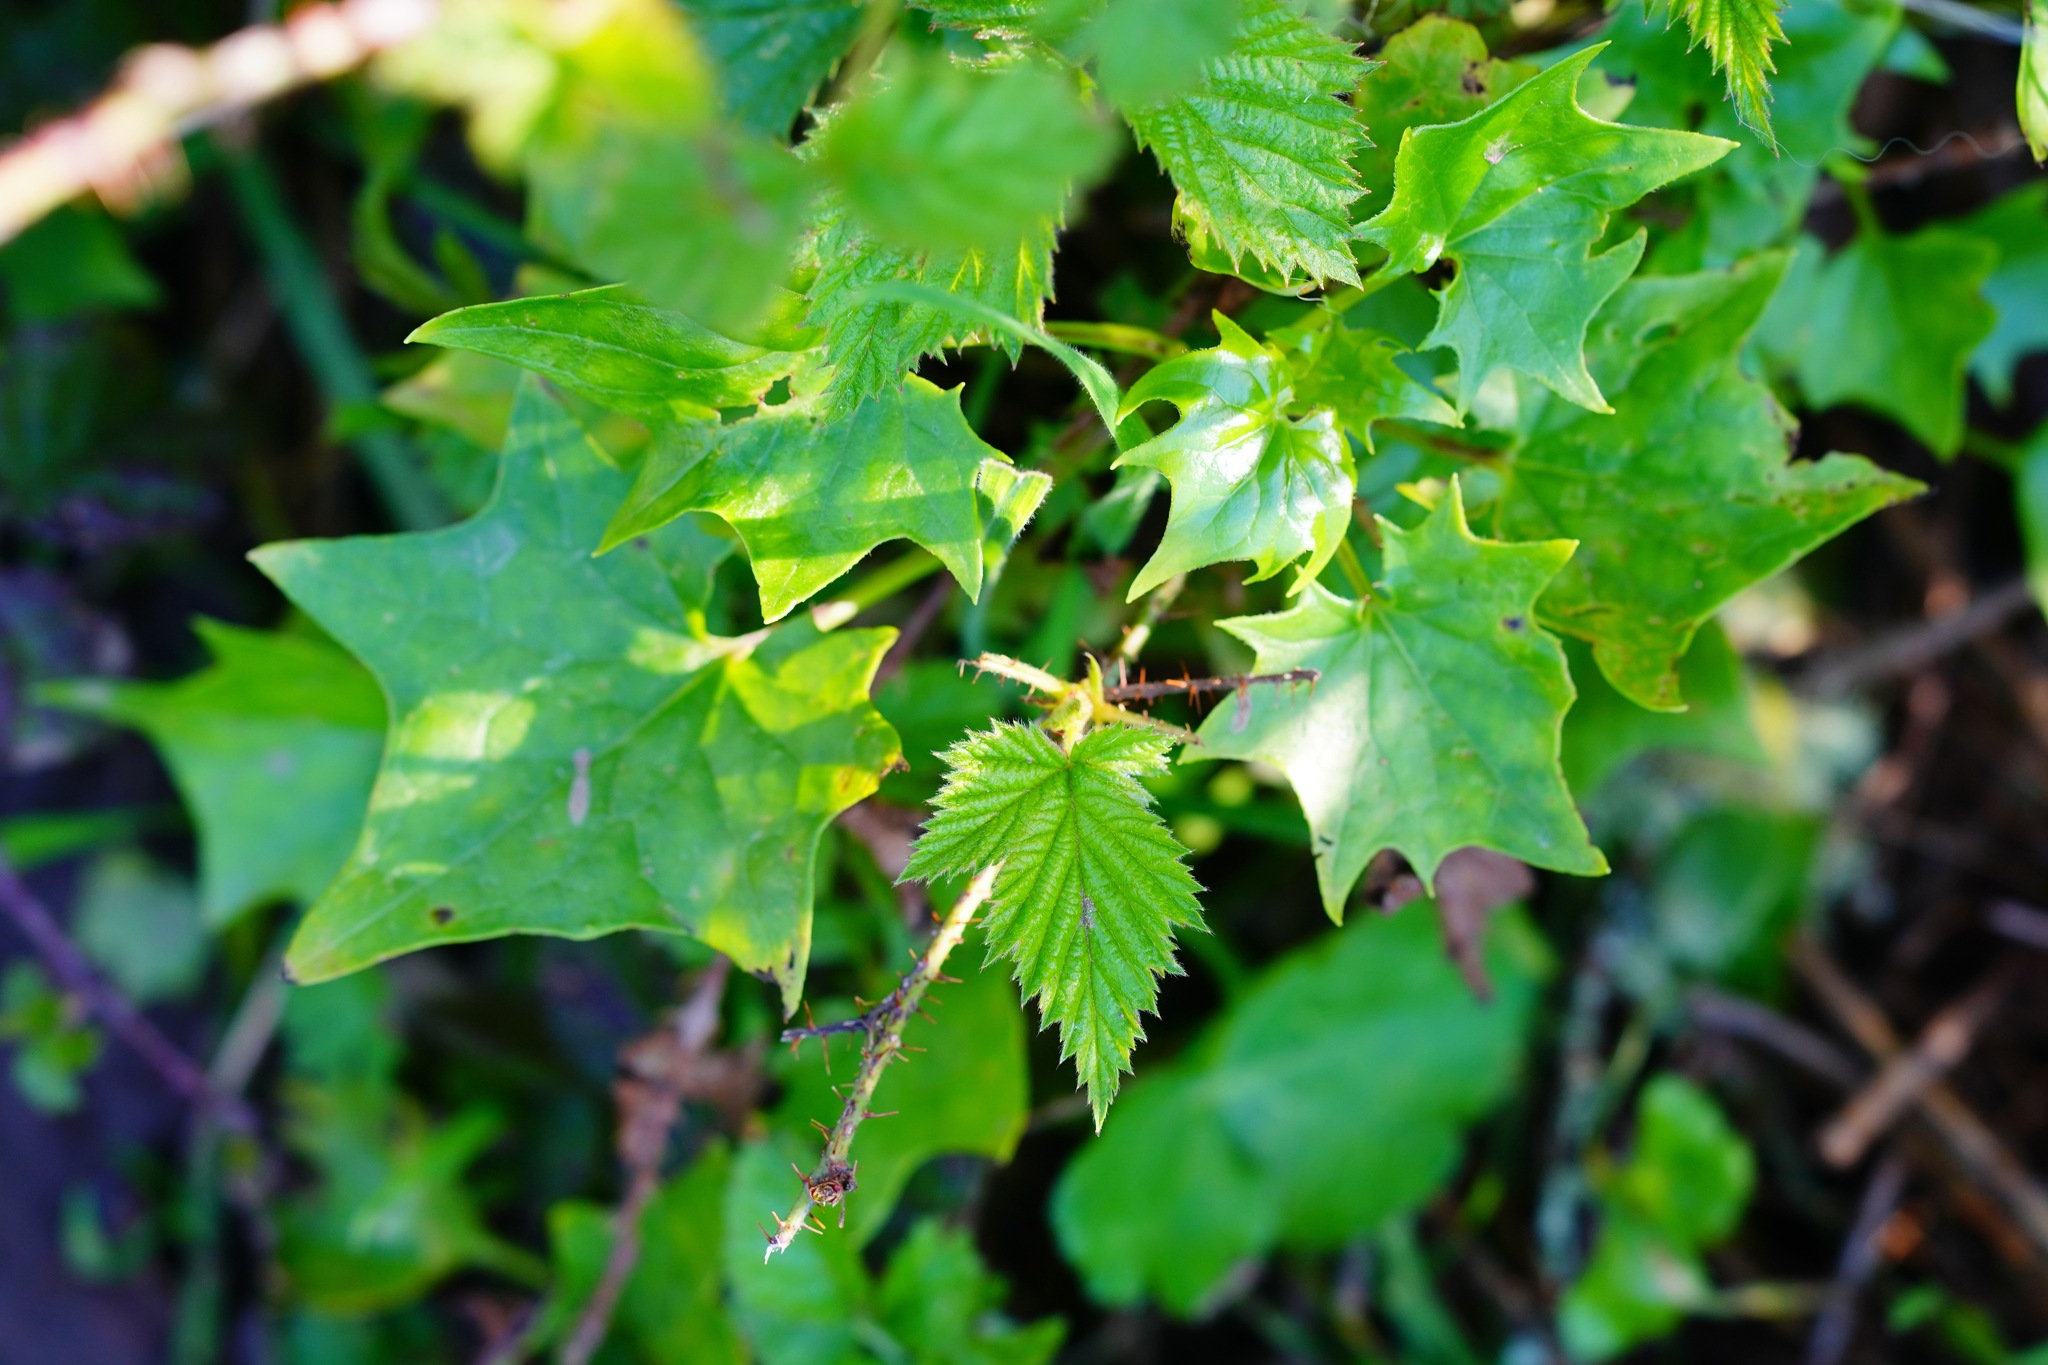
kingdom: Plantae
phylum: Tracheophyta
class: Magnoliopsida
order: Asterales
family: Asteraceae
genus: Delairea
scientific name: Delairea odorata
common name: Cape-ivy
